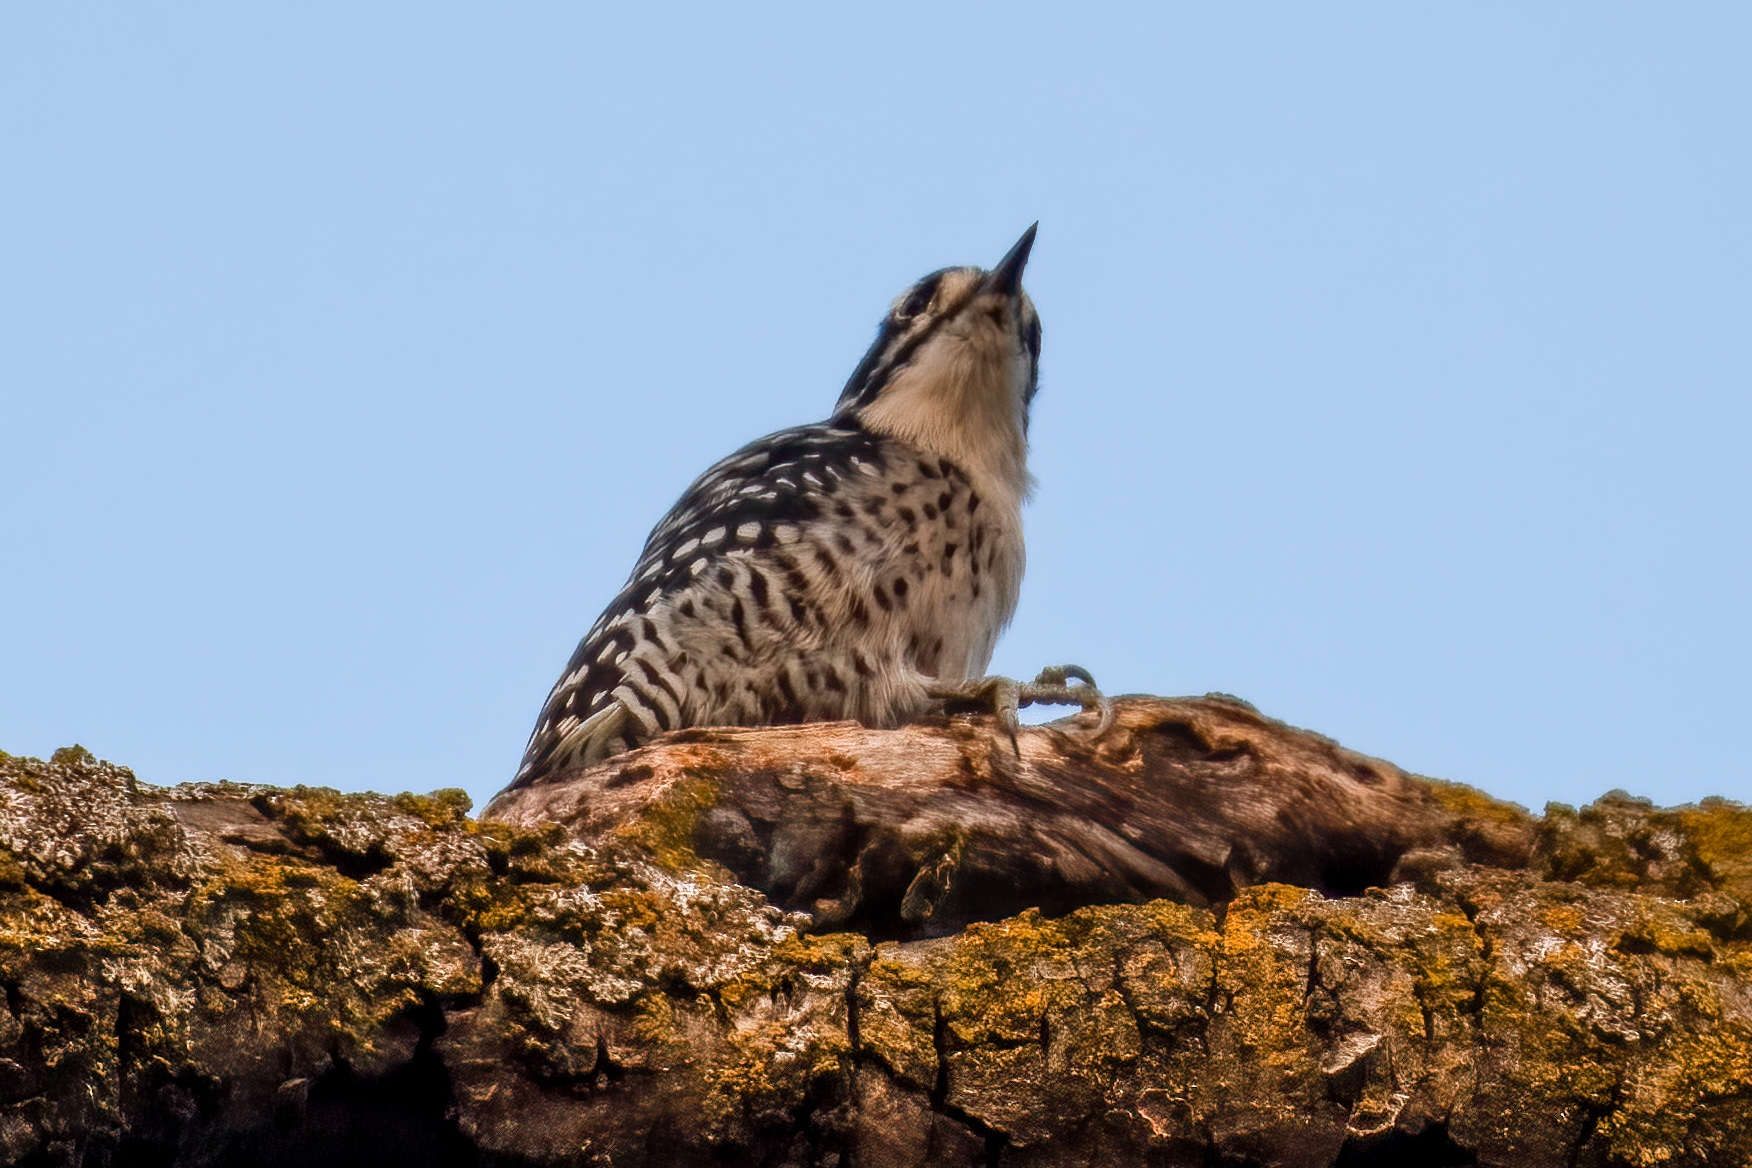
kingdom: Animalia
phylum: Chordata
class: Aves
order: Piciformes
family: Picidae
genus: Dryobates
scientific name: Dryobates nuttallii
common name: Nuttall's woodpecker
